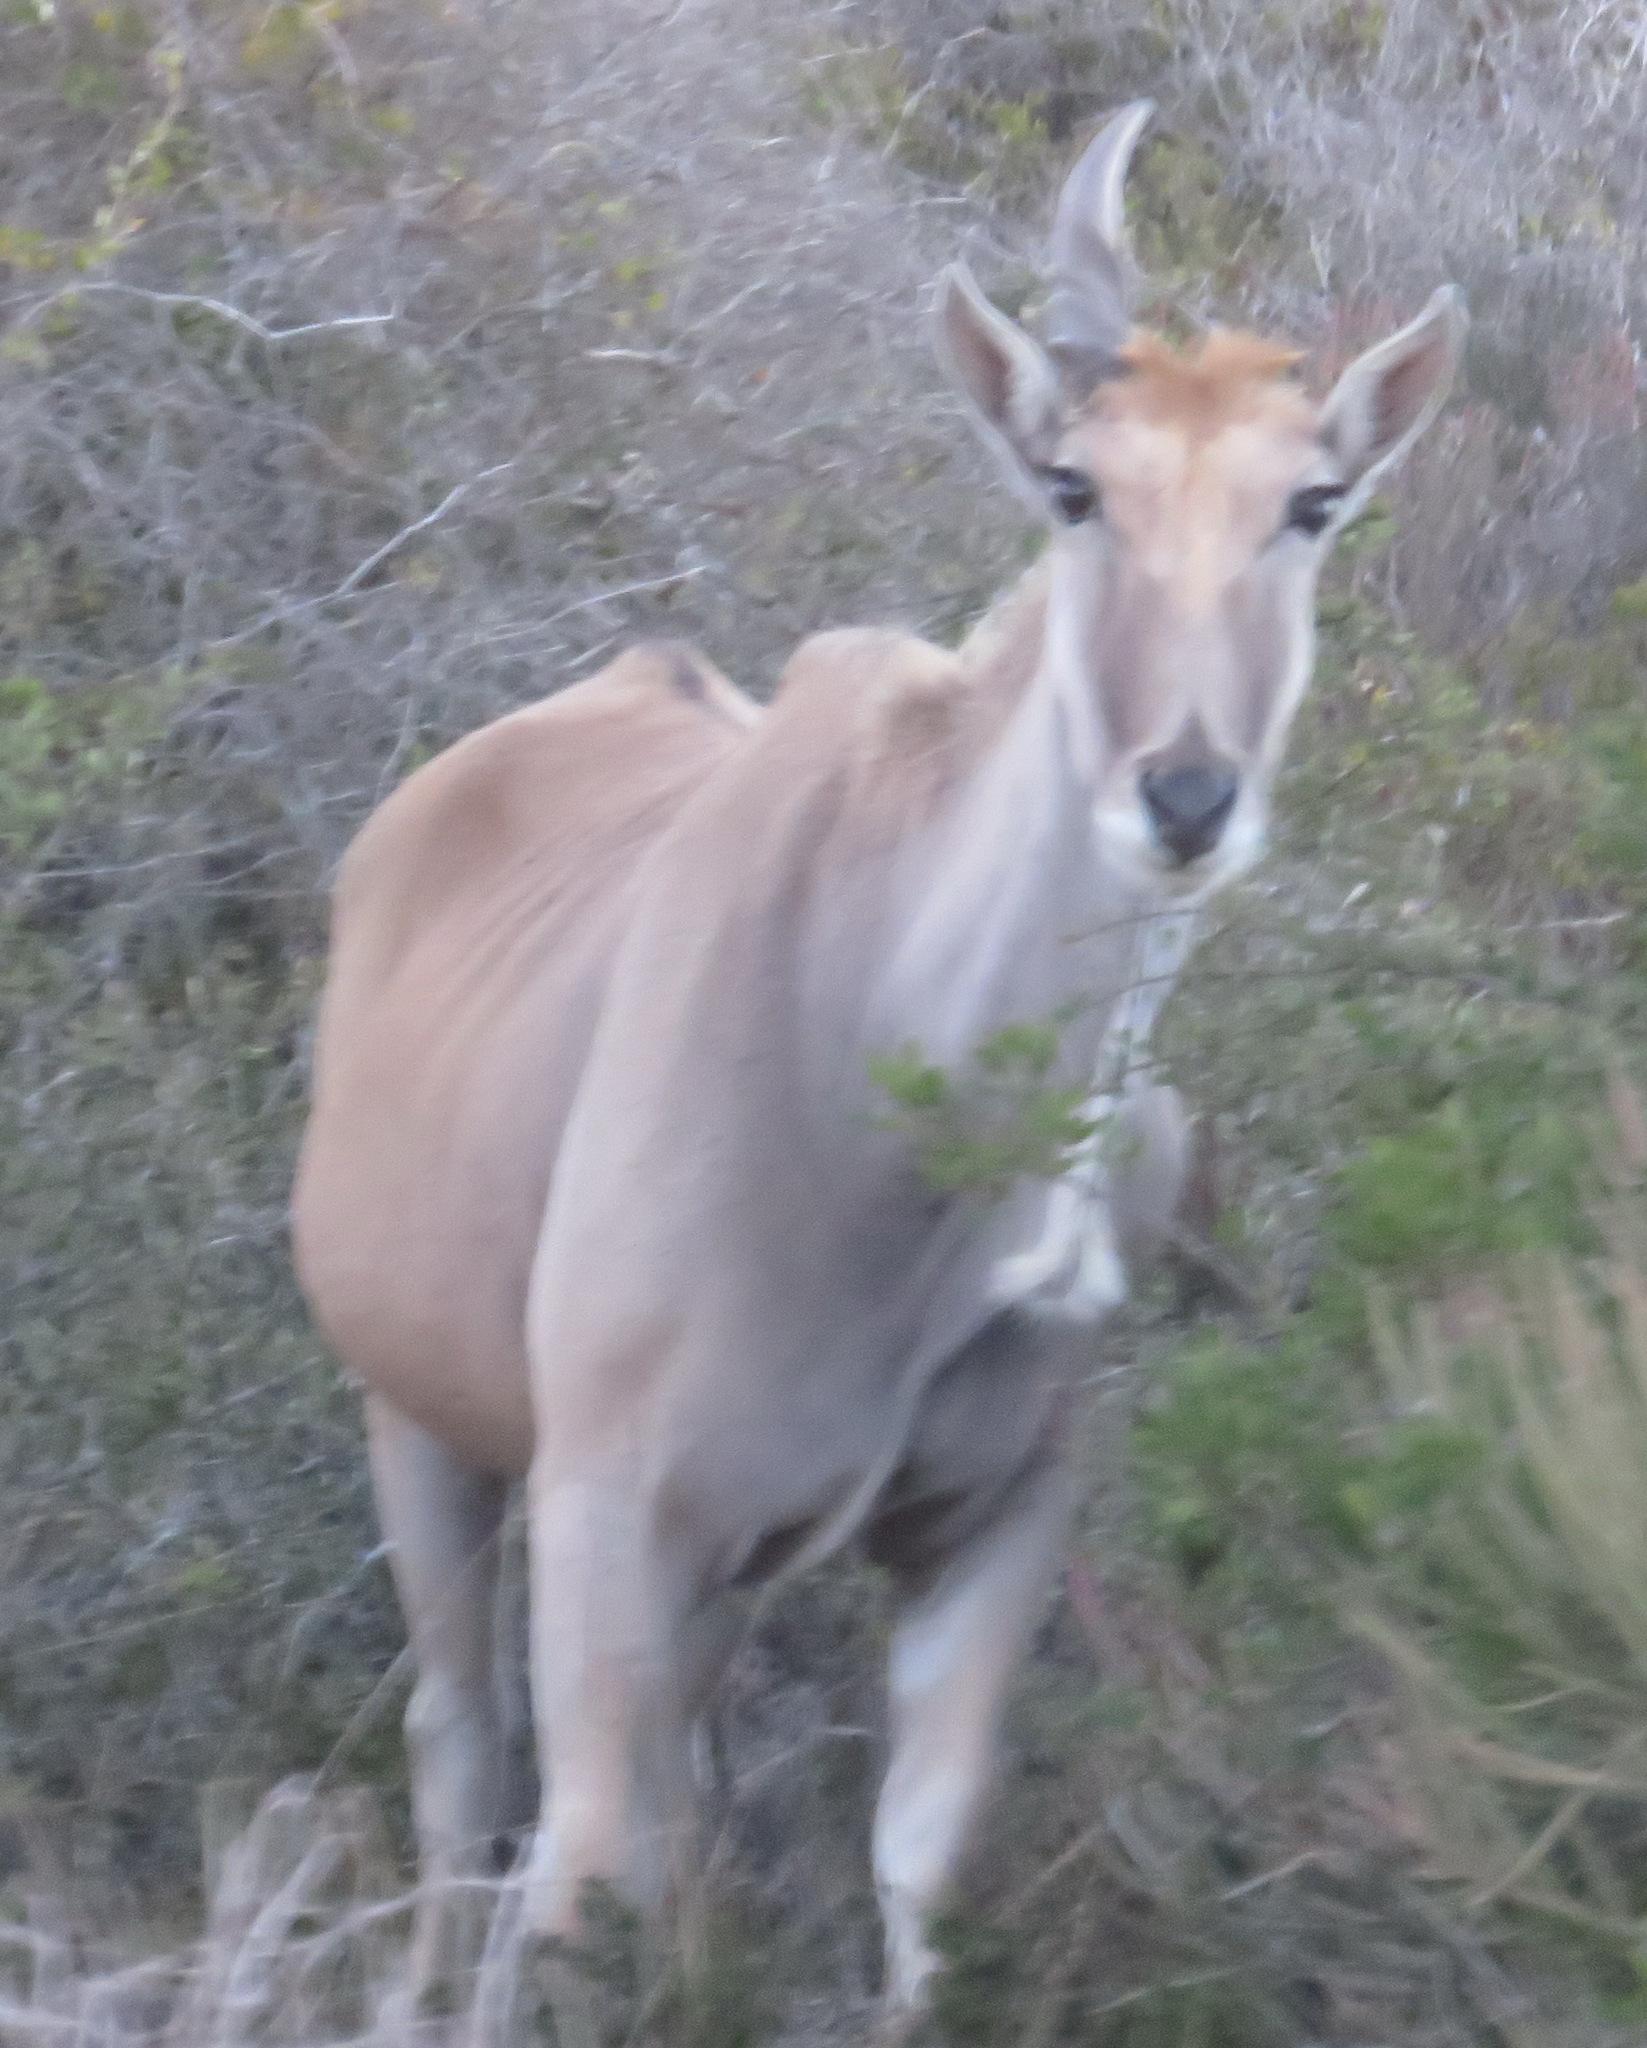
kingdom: Animalia
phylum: Chordata
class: Mammalia
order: Artiodactyla
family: Bovidae
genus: Taurotragus
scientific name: Taurotragus oryx
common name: Common eland
